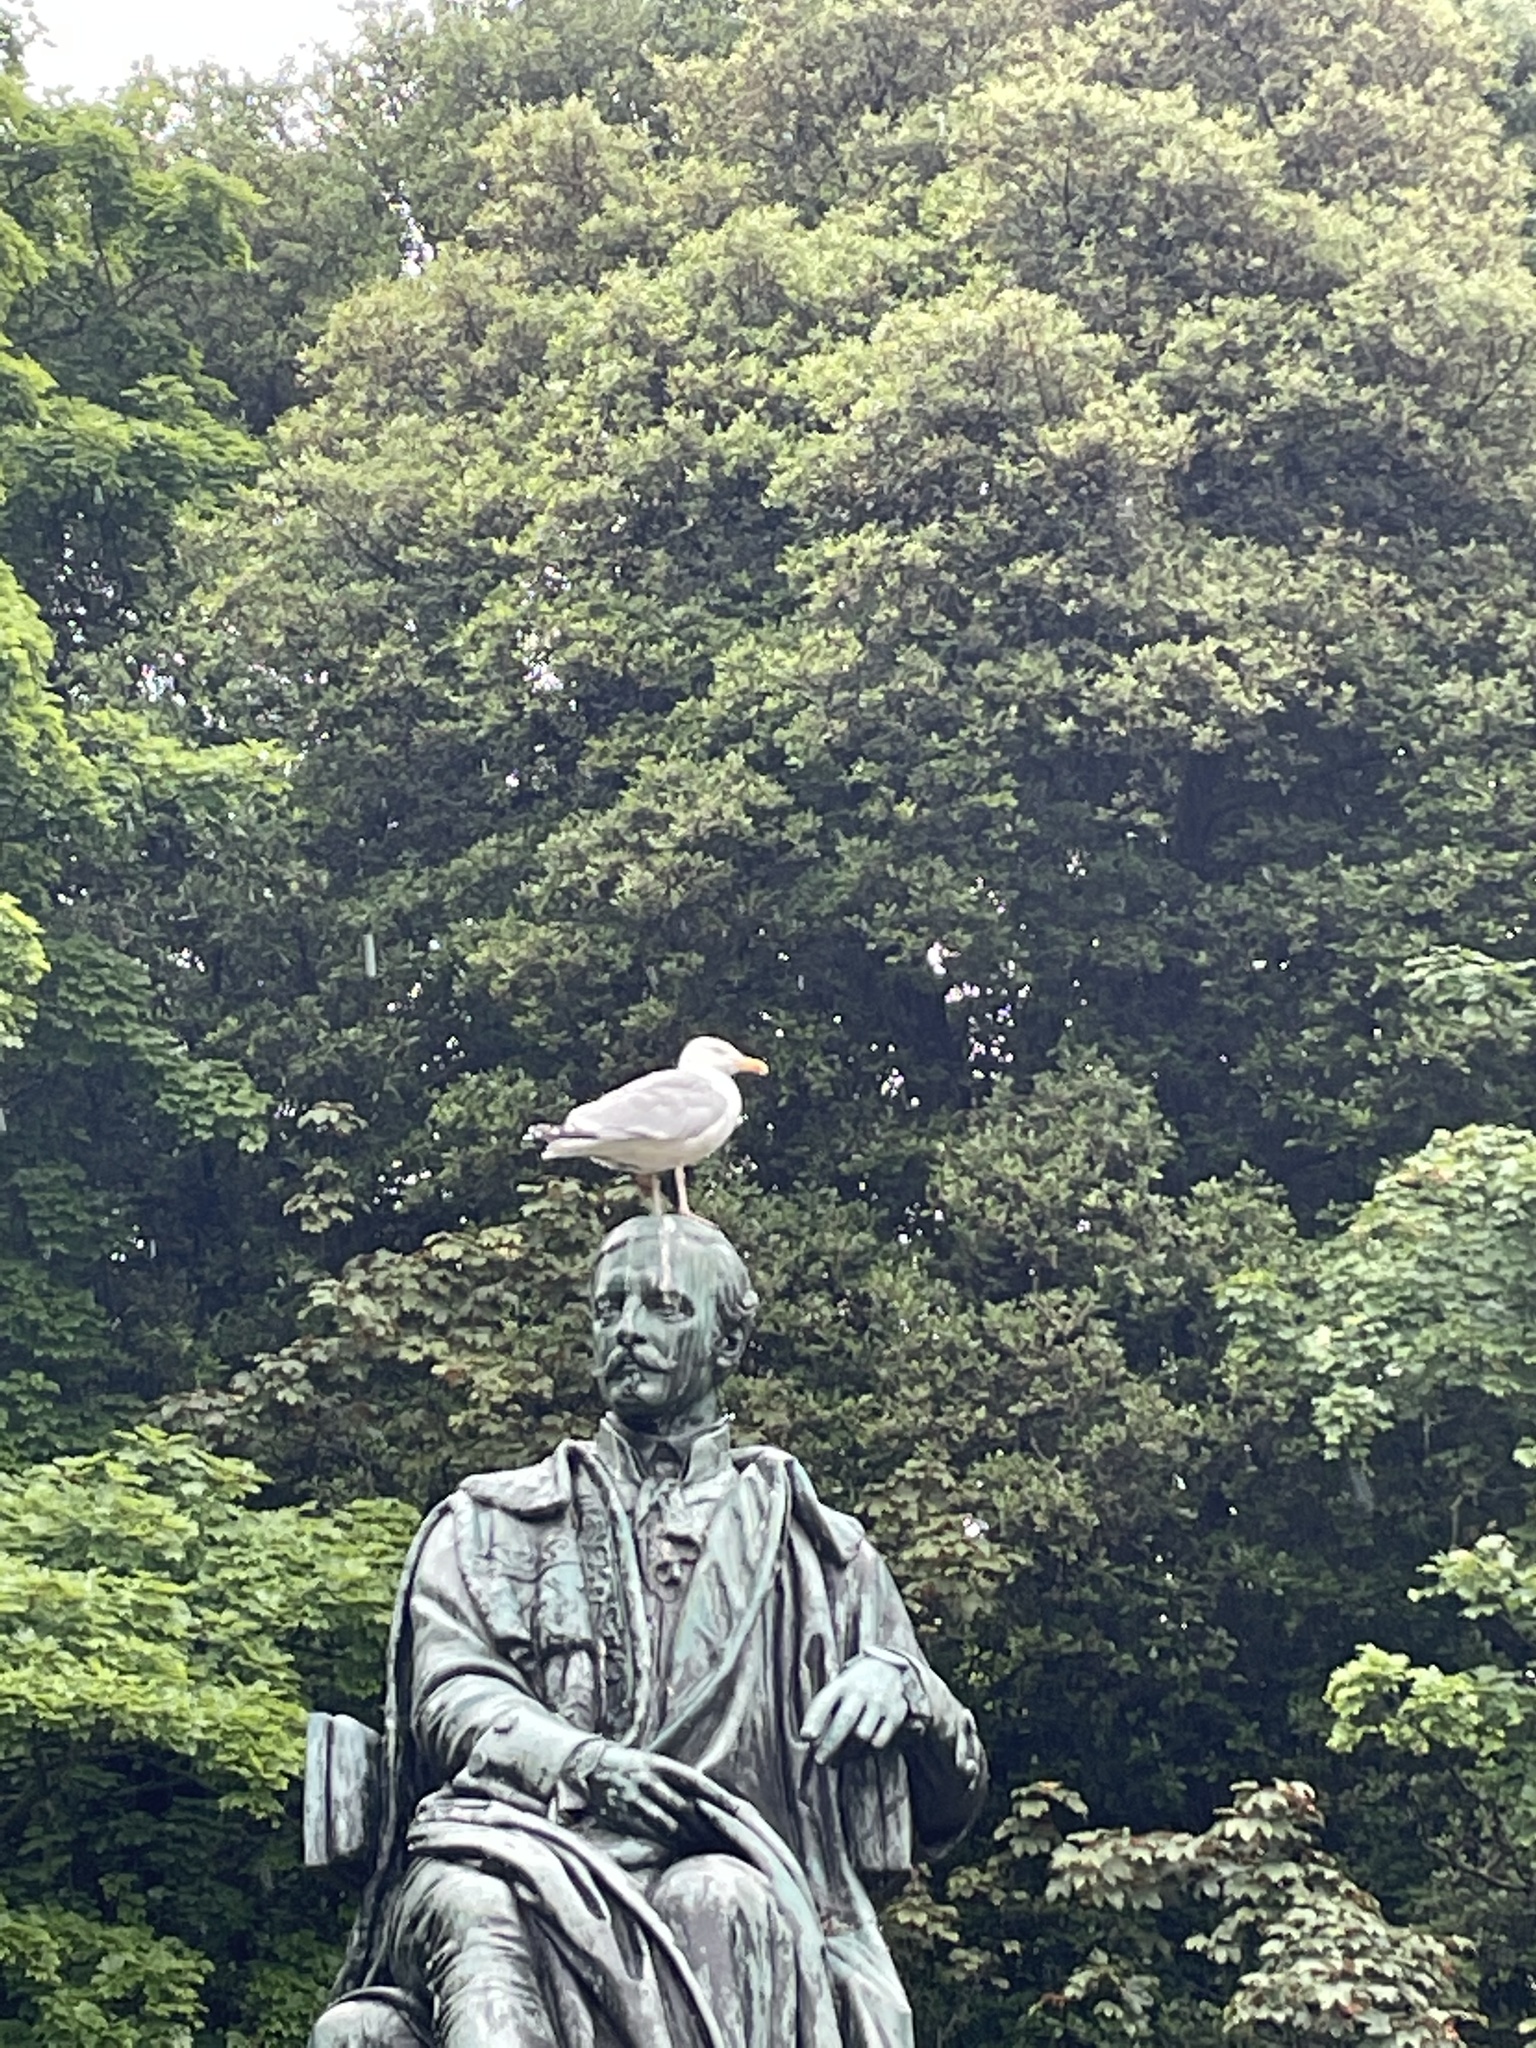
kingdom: Animalia
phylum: Chordata
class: Aves
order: Charadriiformes
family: Laridae
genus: Larus
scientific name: Larus argentatus
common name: Herring gull
